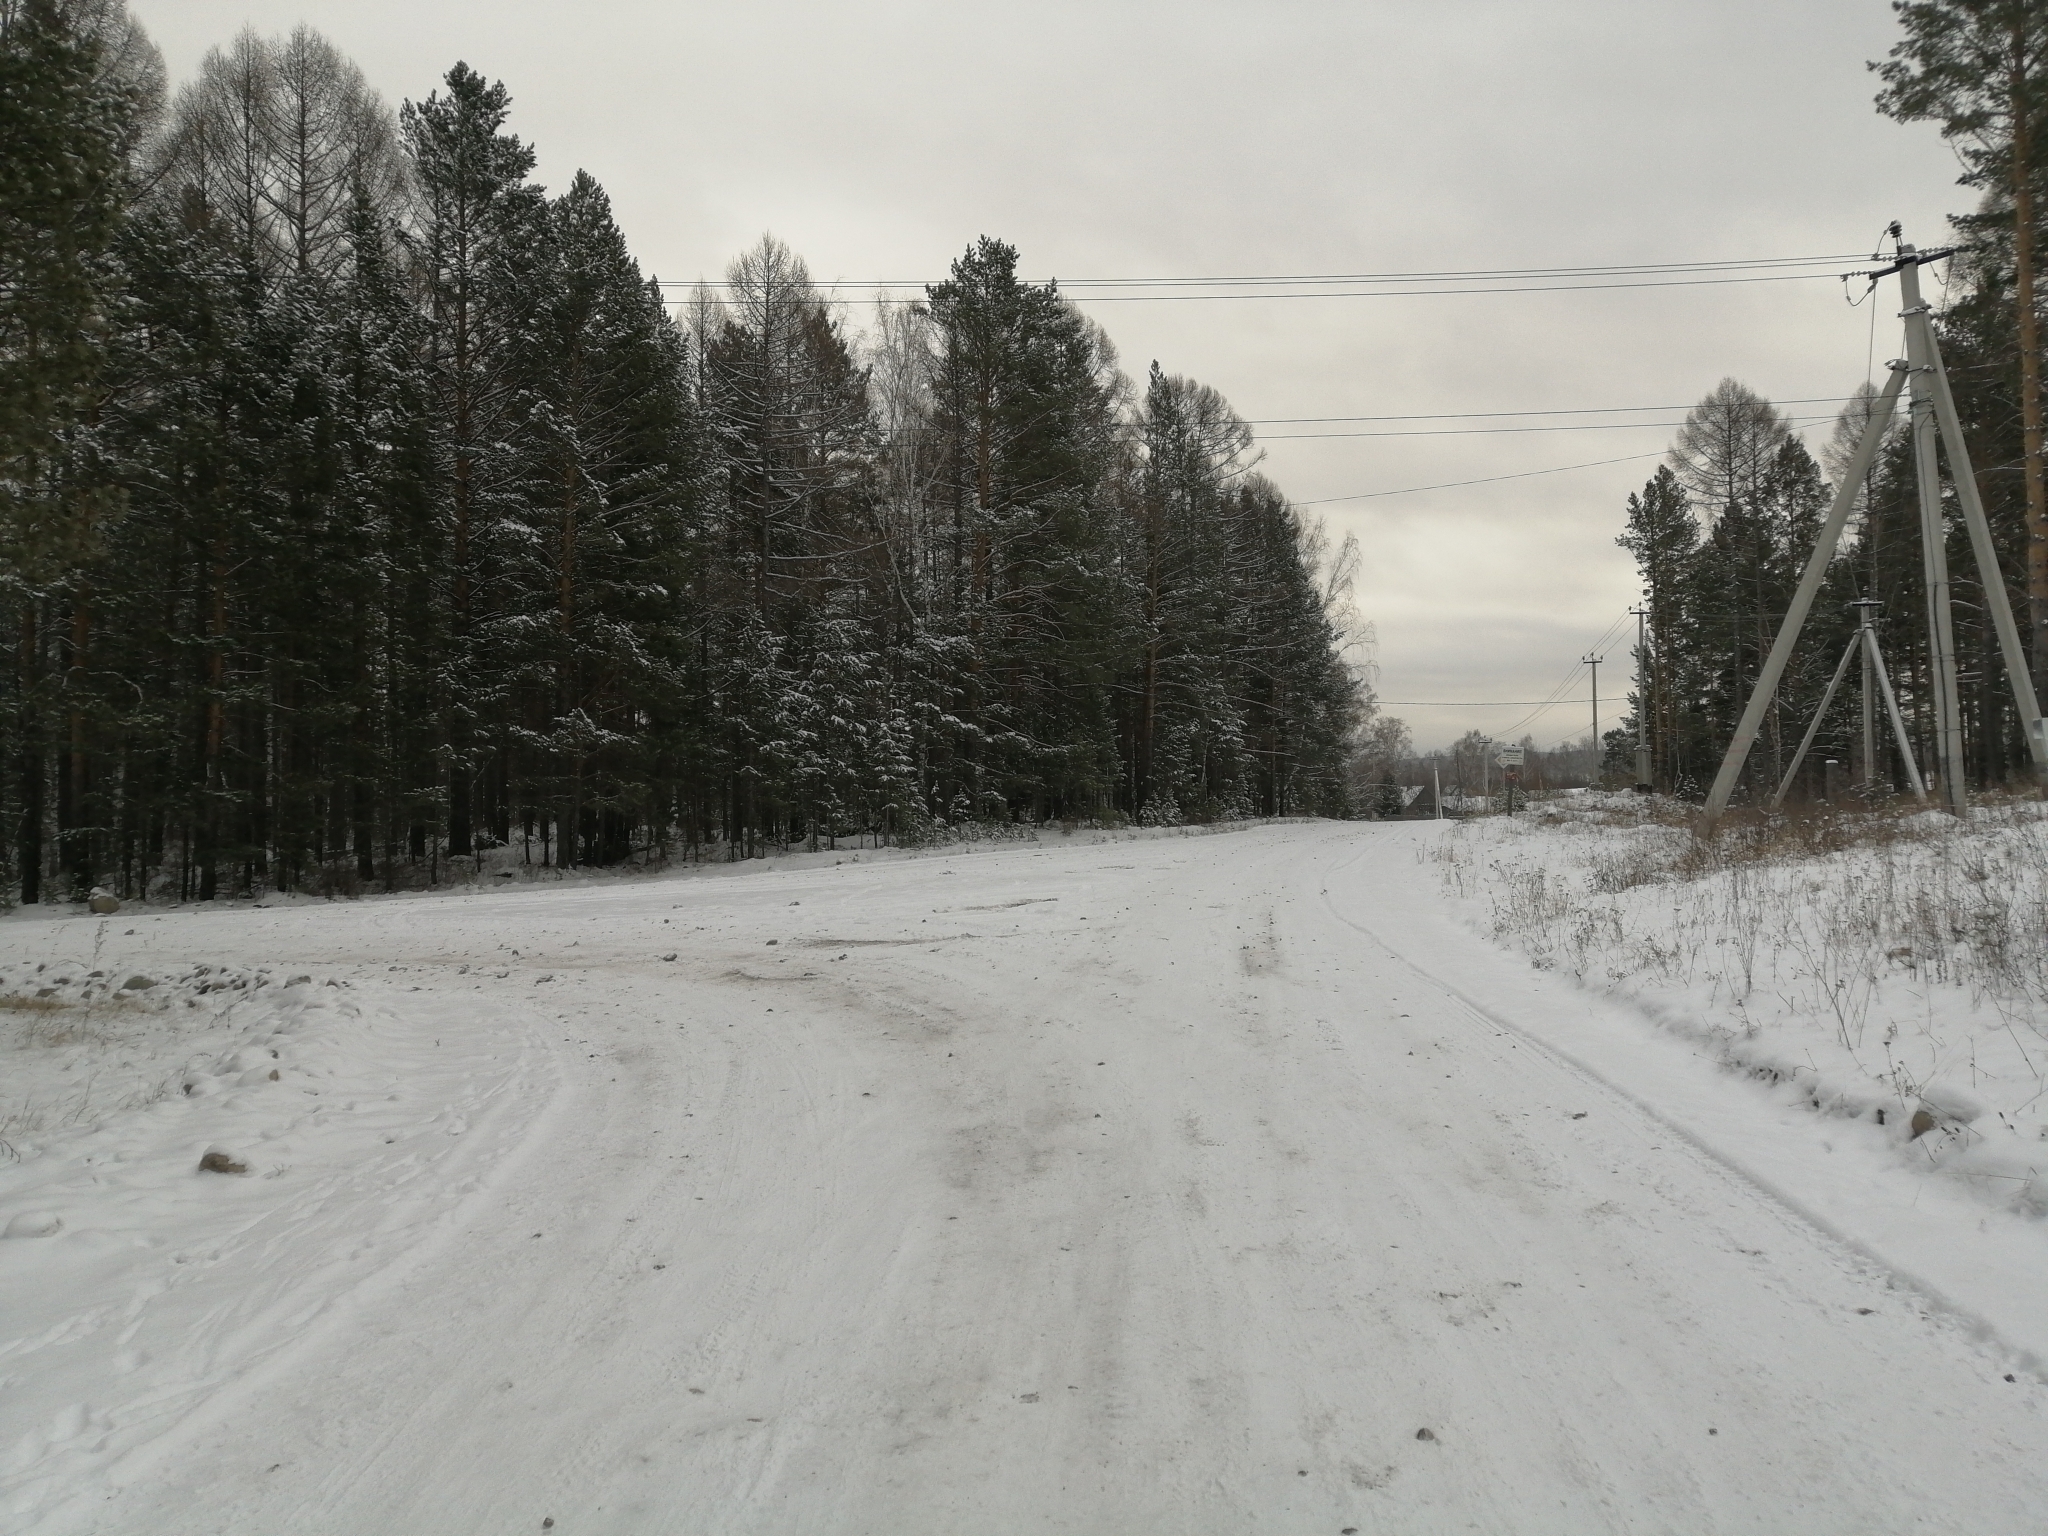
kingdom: Plantae
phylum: Tracheophyta
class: Pinopsida
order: Pinales
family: Pinaceae
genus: Pinus
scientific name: Pinus sylvestris
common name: Scots pine
